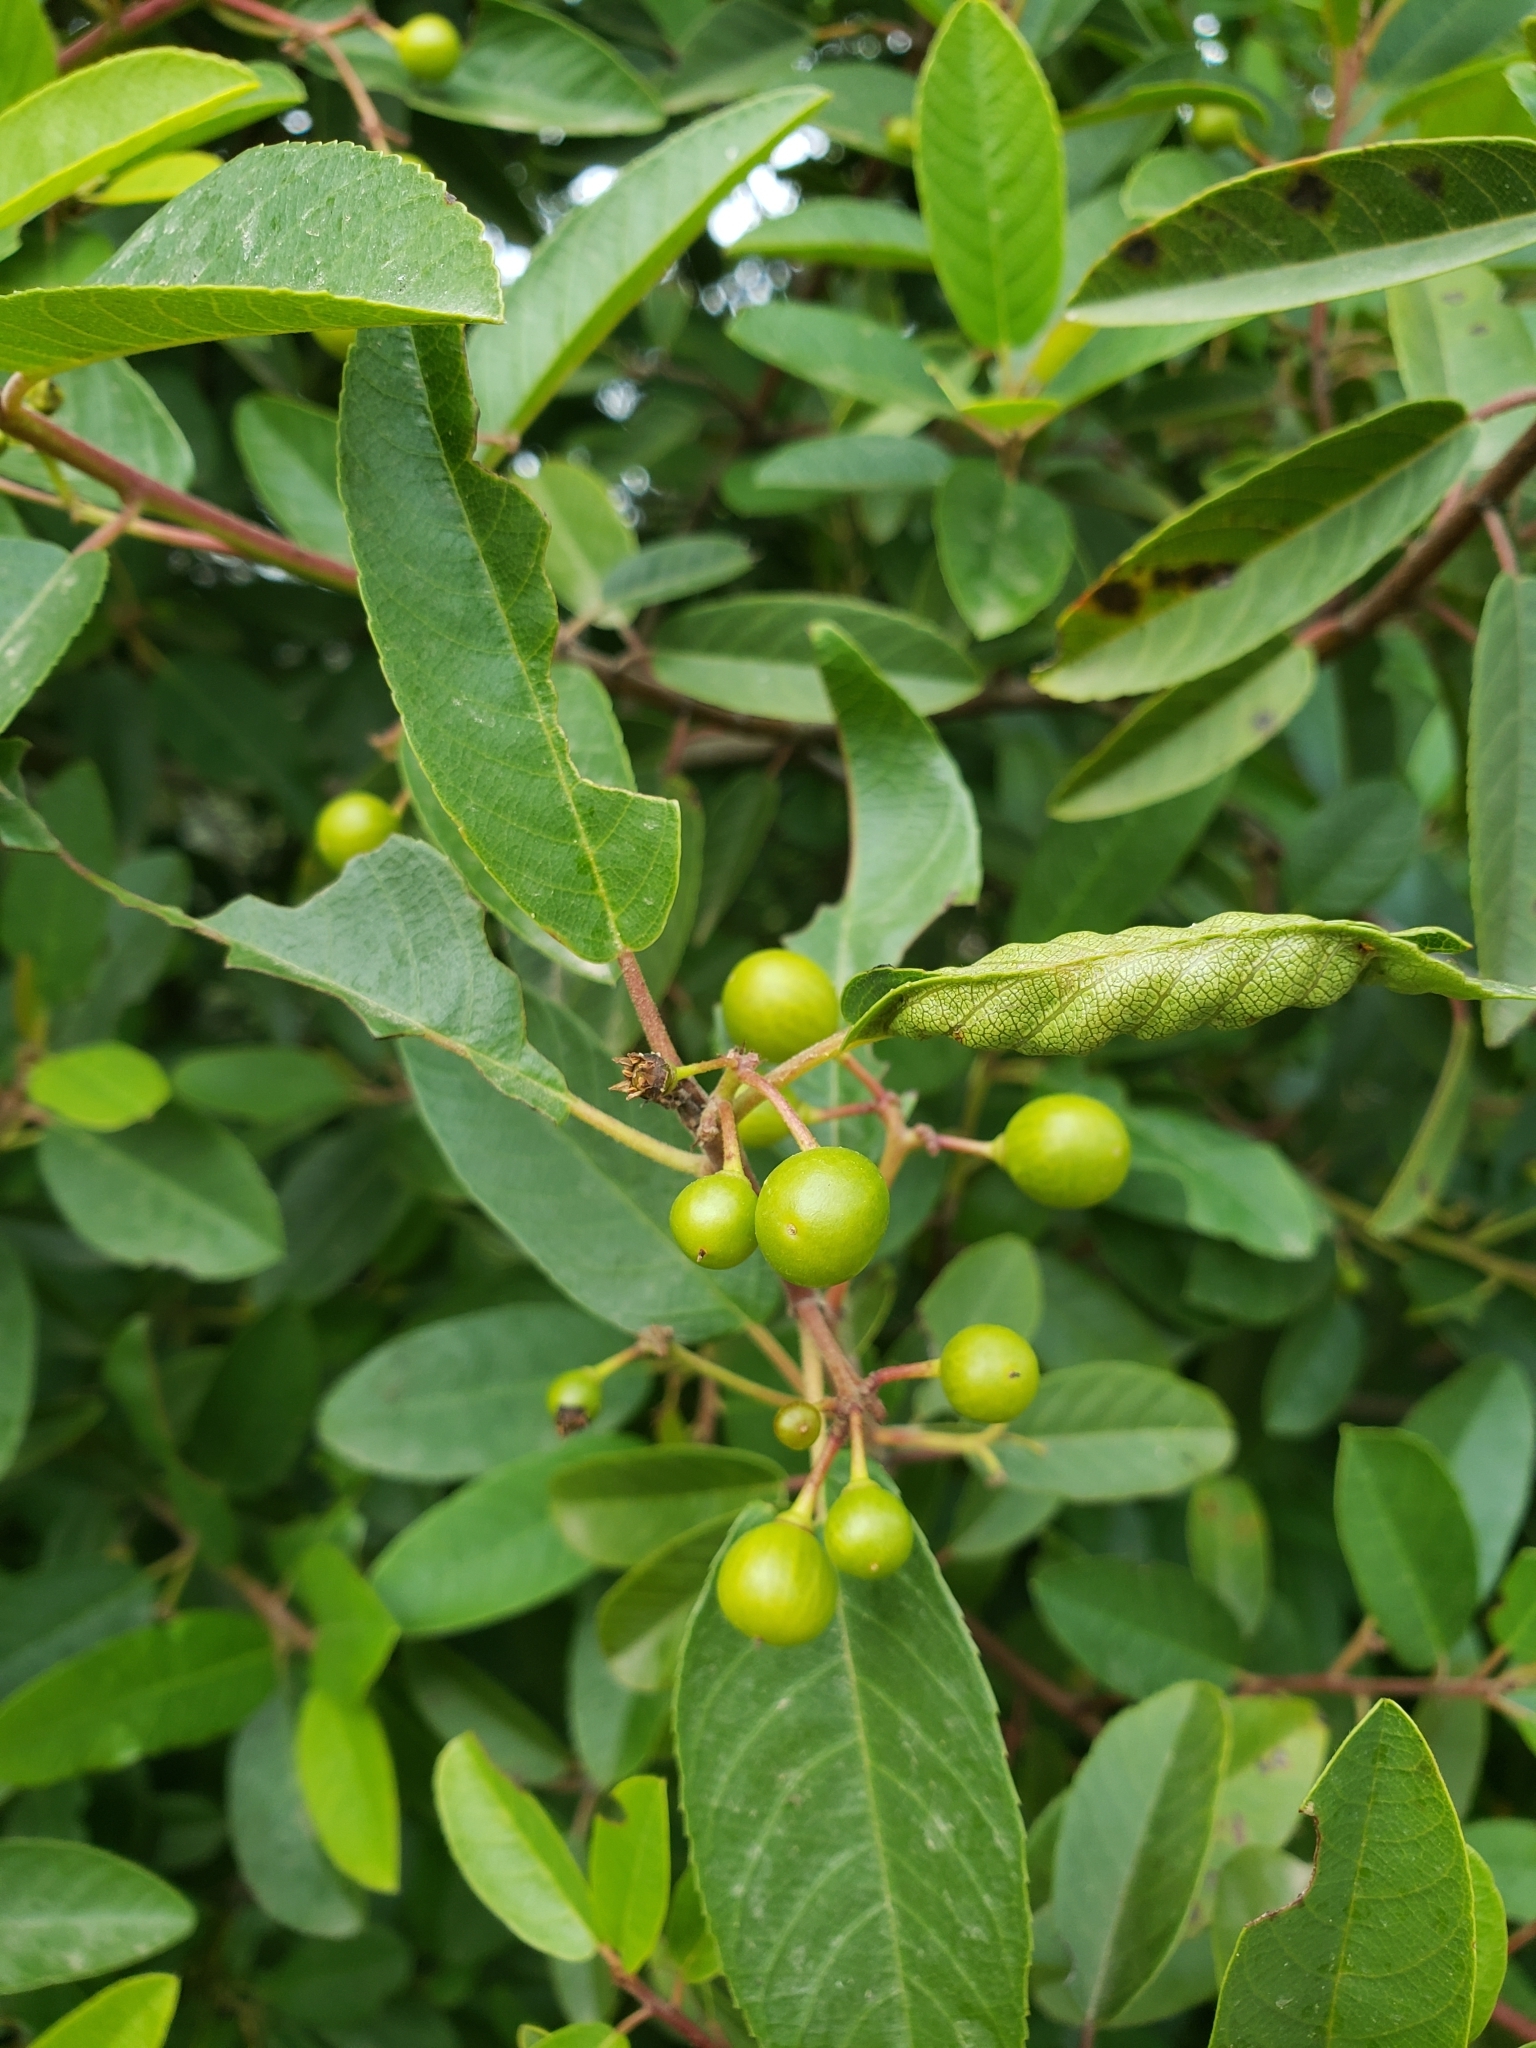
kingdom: Plantae
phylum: Tracheophyta
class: Magnoliopsida
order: Rosales
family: Rhamnaceae
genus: Frangula
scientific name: Frangula californica
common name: California buckthorn
